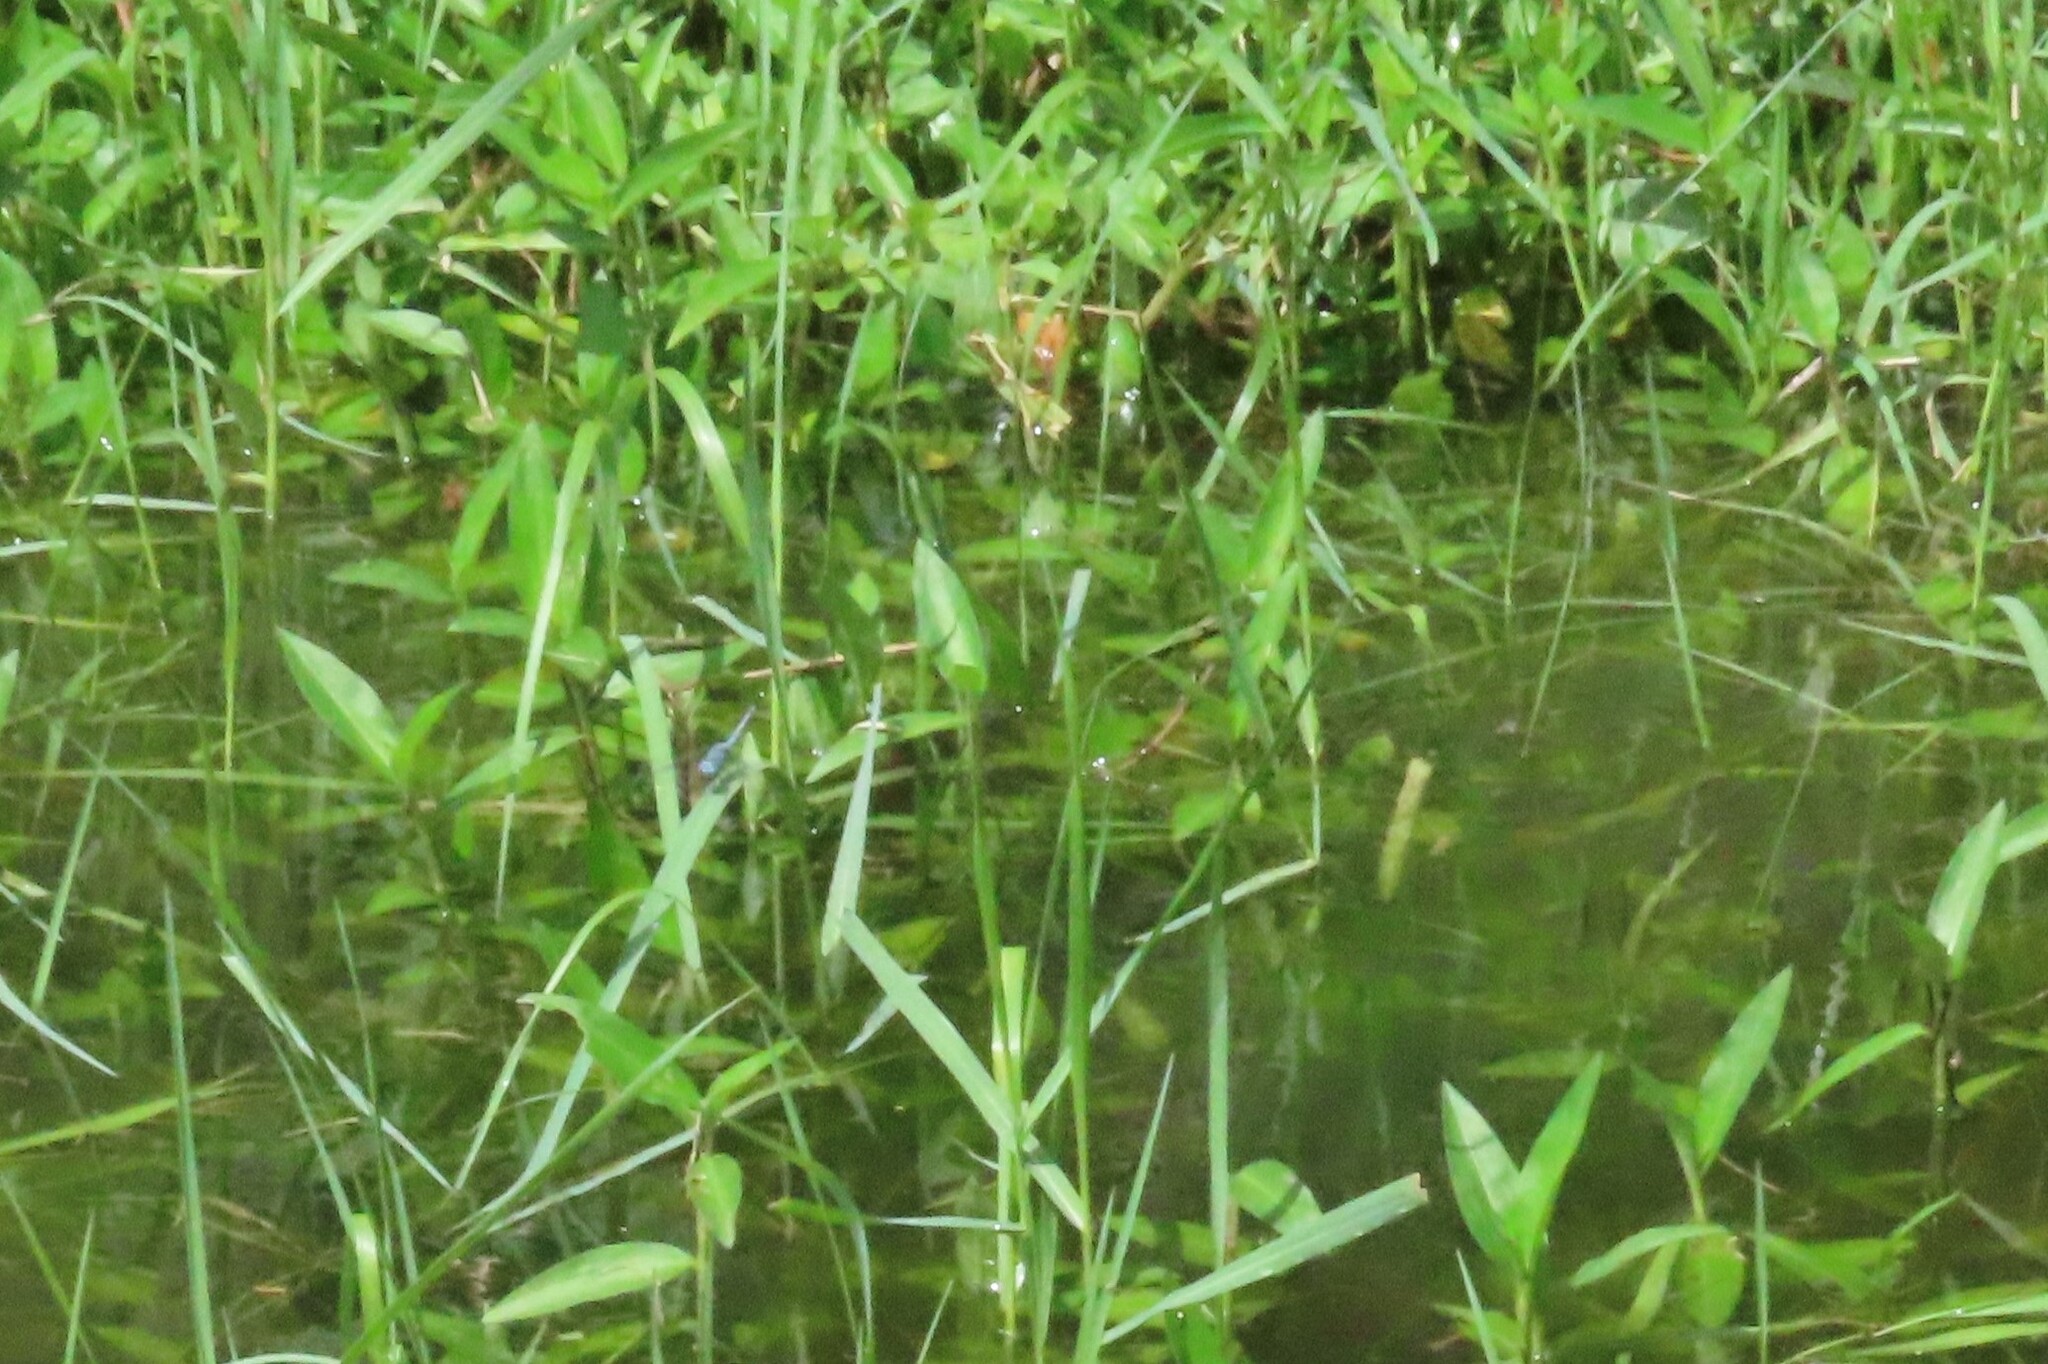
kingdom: Animalia
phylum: Arthropoda
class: Insecta
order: Odonata
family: Libellulidae
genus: Diplacodes
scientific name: Diplacodes trivialis
